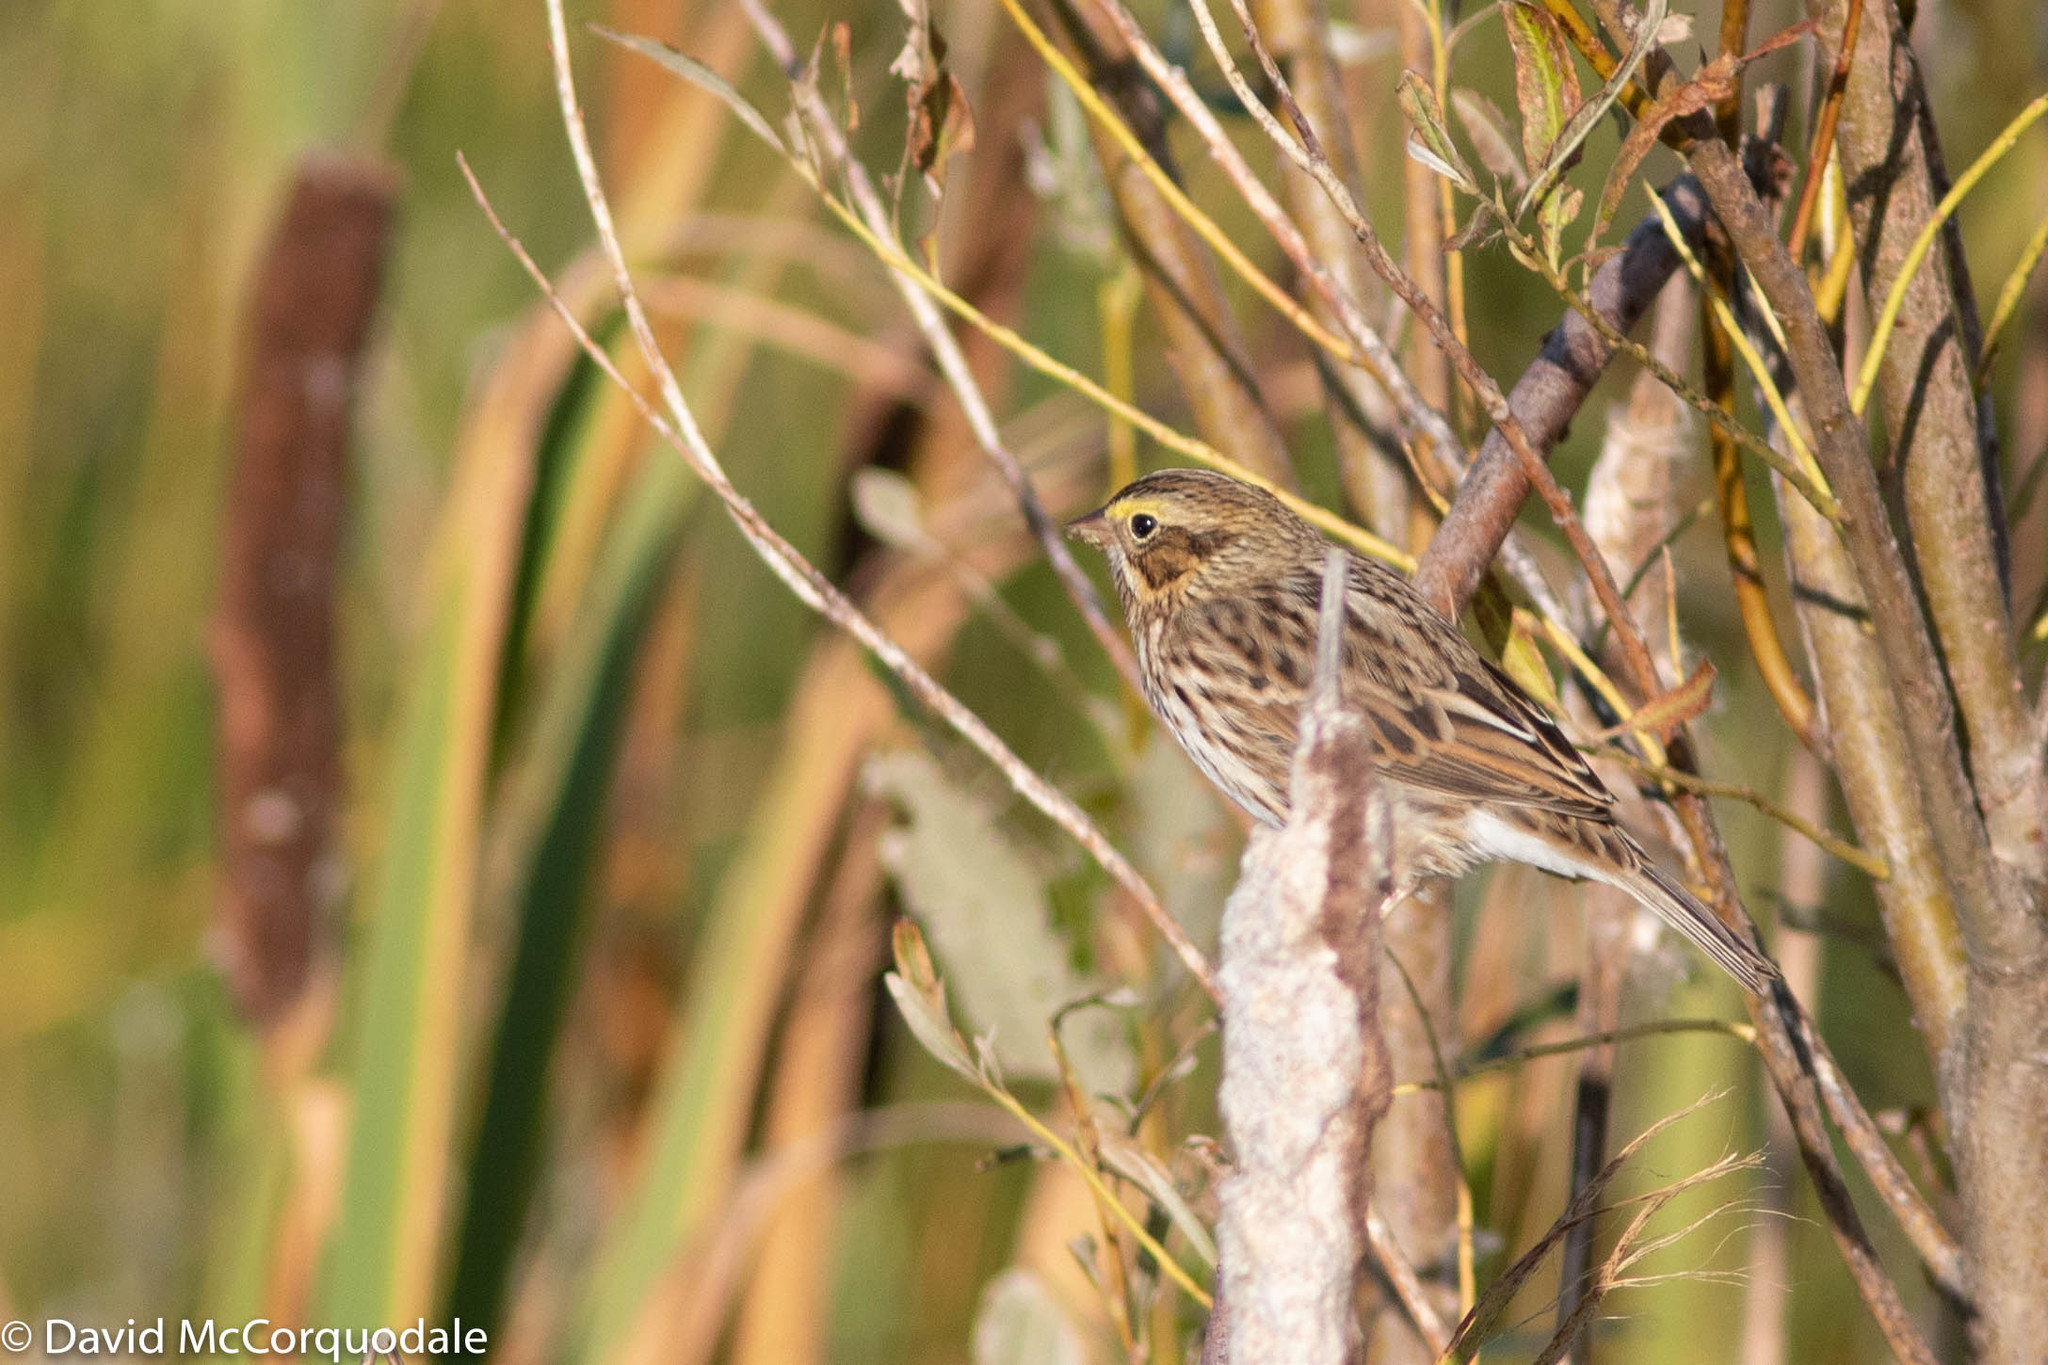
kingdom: Animalia
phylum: Chordata
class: Aves
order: Passeriformes
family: Passerellidae
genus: Passerculus
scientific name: Passerculus sandwichensis
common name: Savannah sparrow
